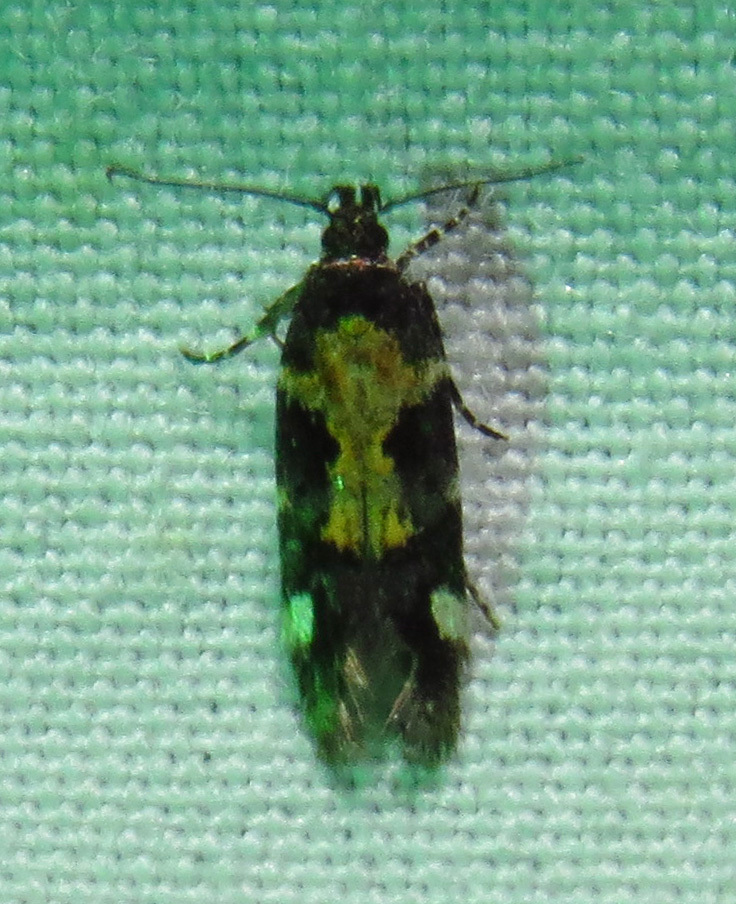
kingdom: Animalia
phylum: Arthropoda
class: Insecta
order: Lepidoptera
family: Gelechiidae
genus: Stegasta
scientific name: Stegasta bosqueella
